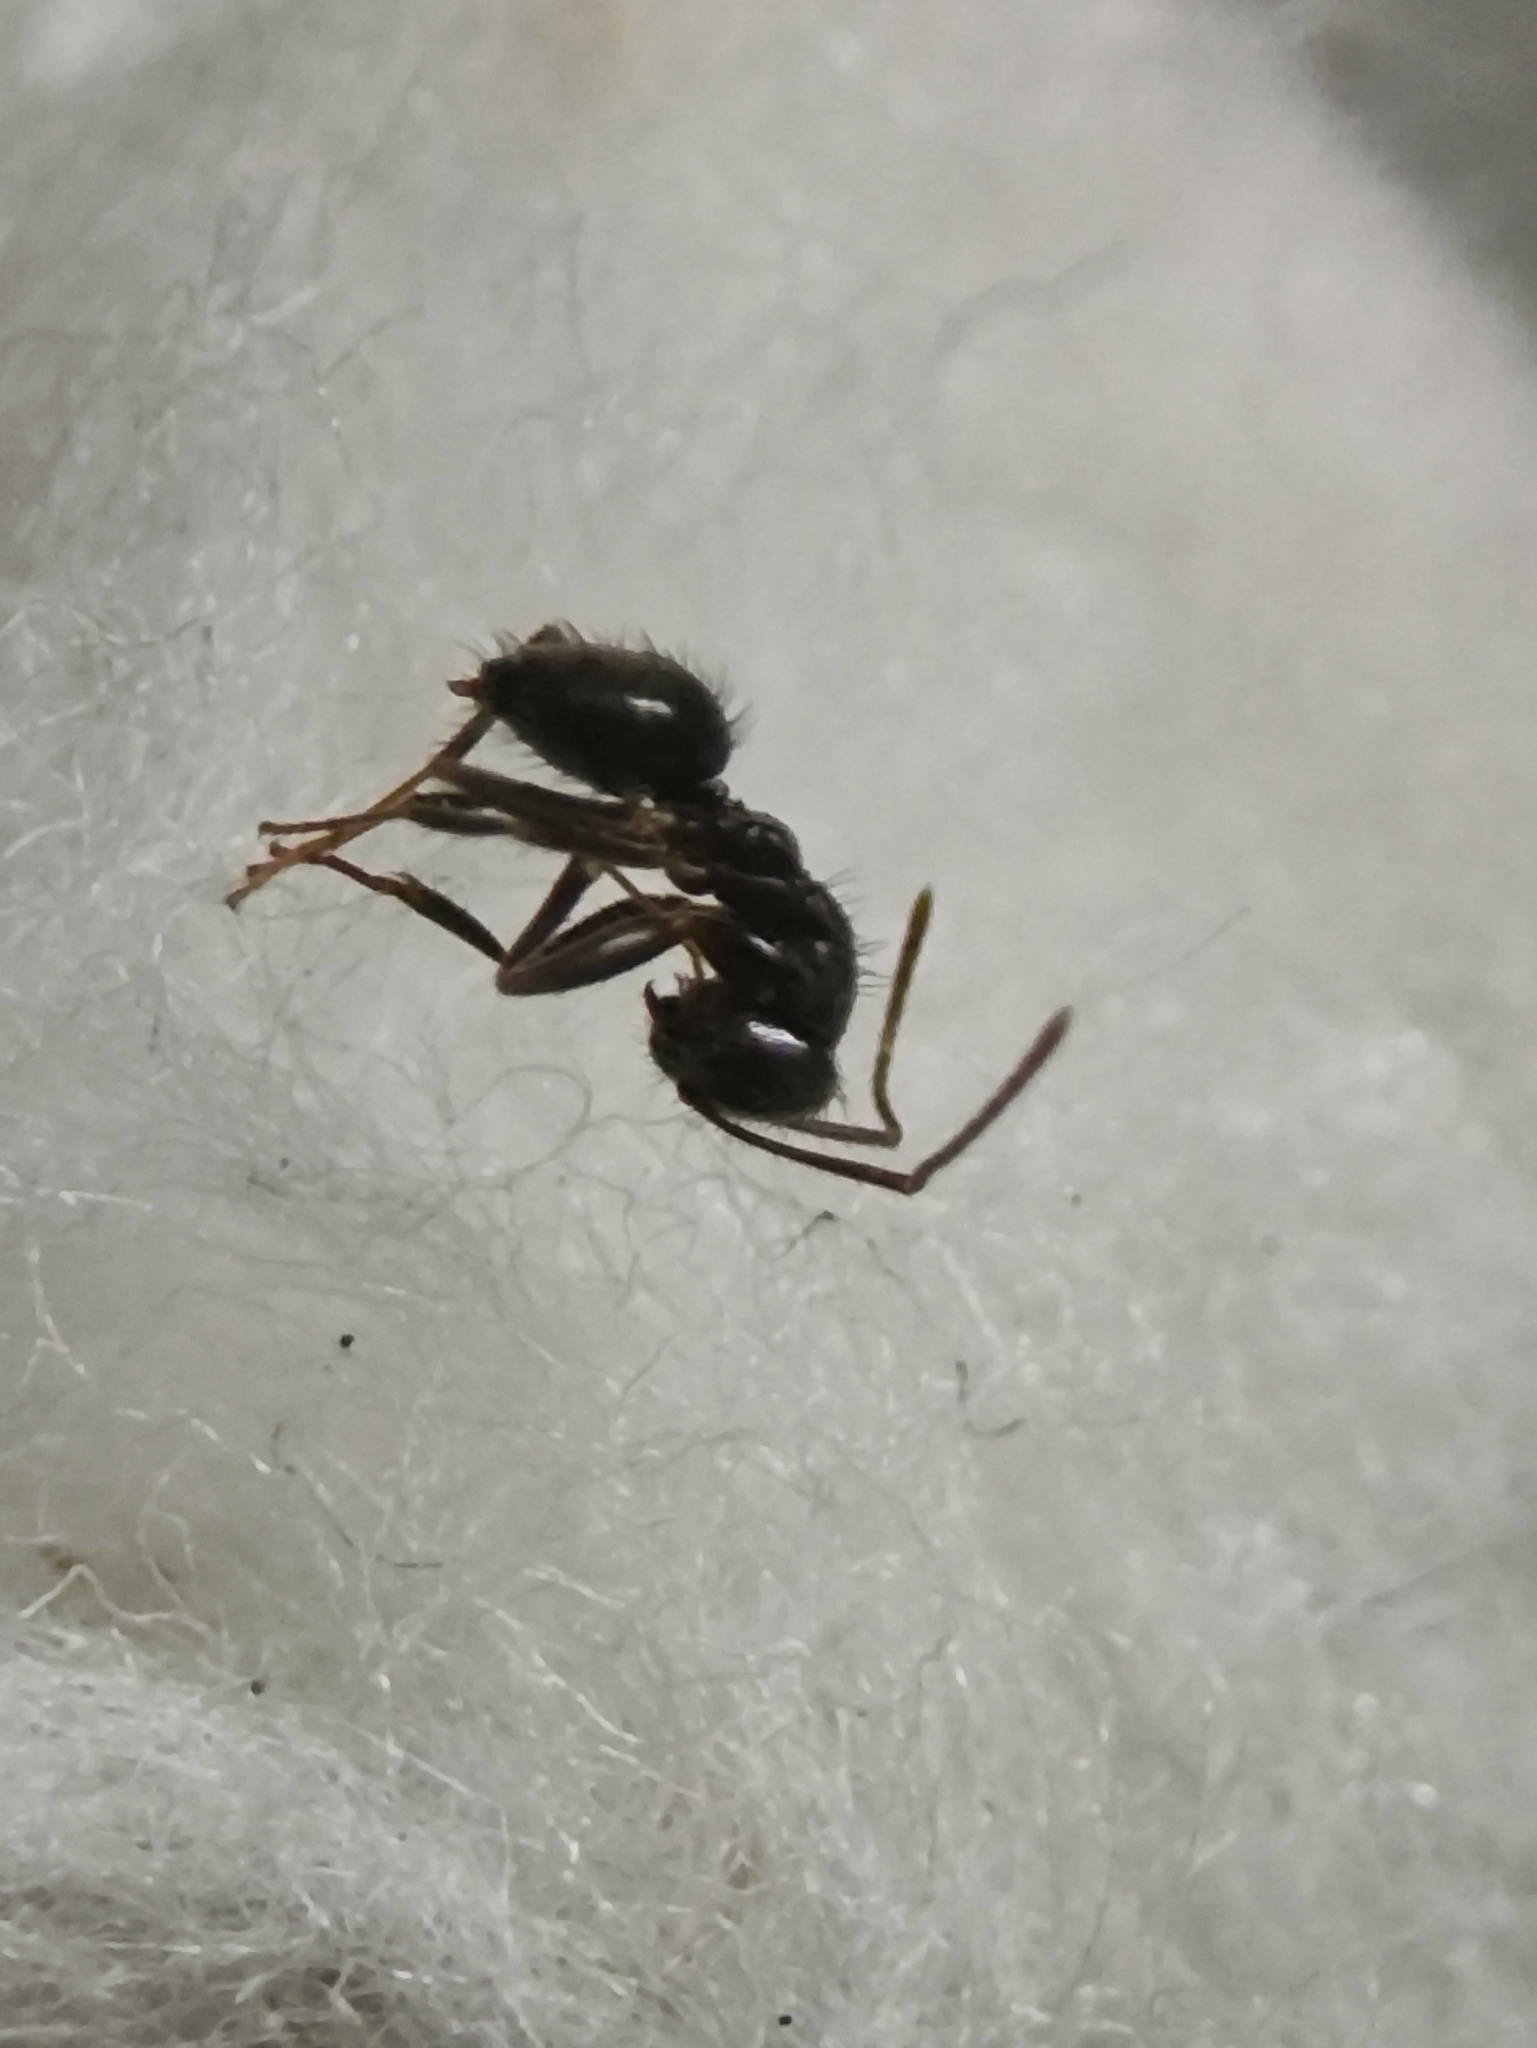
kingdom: Animalia
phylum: Arthropoda
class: Insecta
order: Hymenoptera
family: Formicidae
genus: Paratrechina
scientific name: Paratrechina bourbonica
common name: Ant
